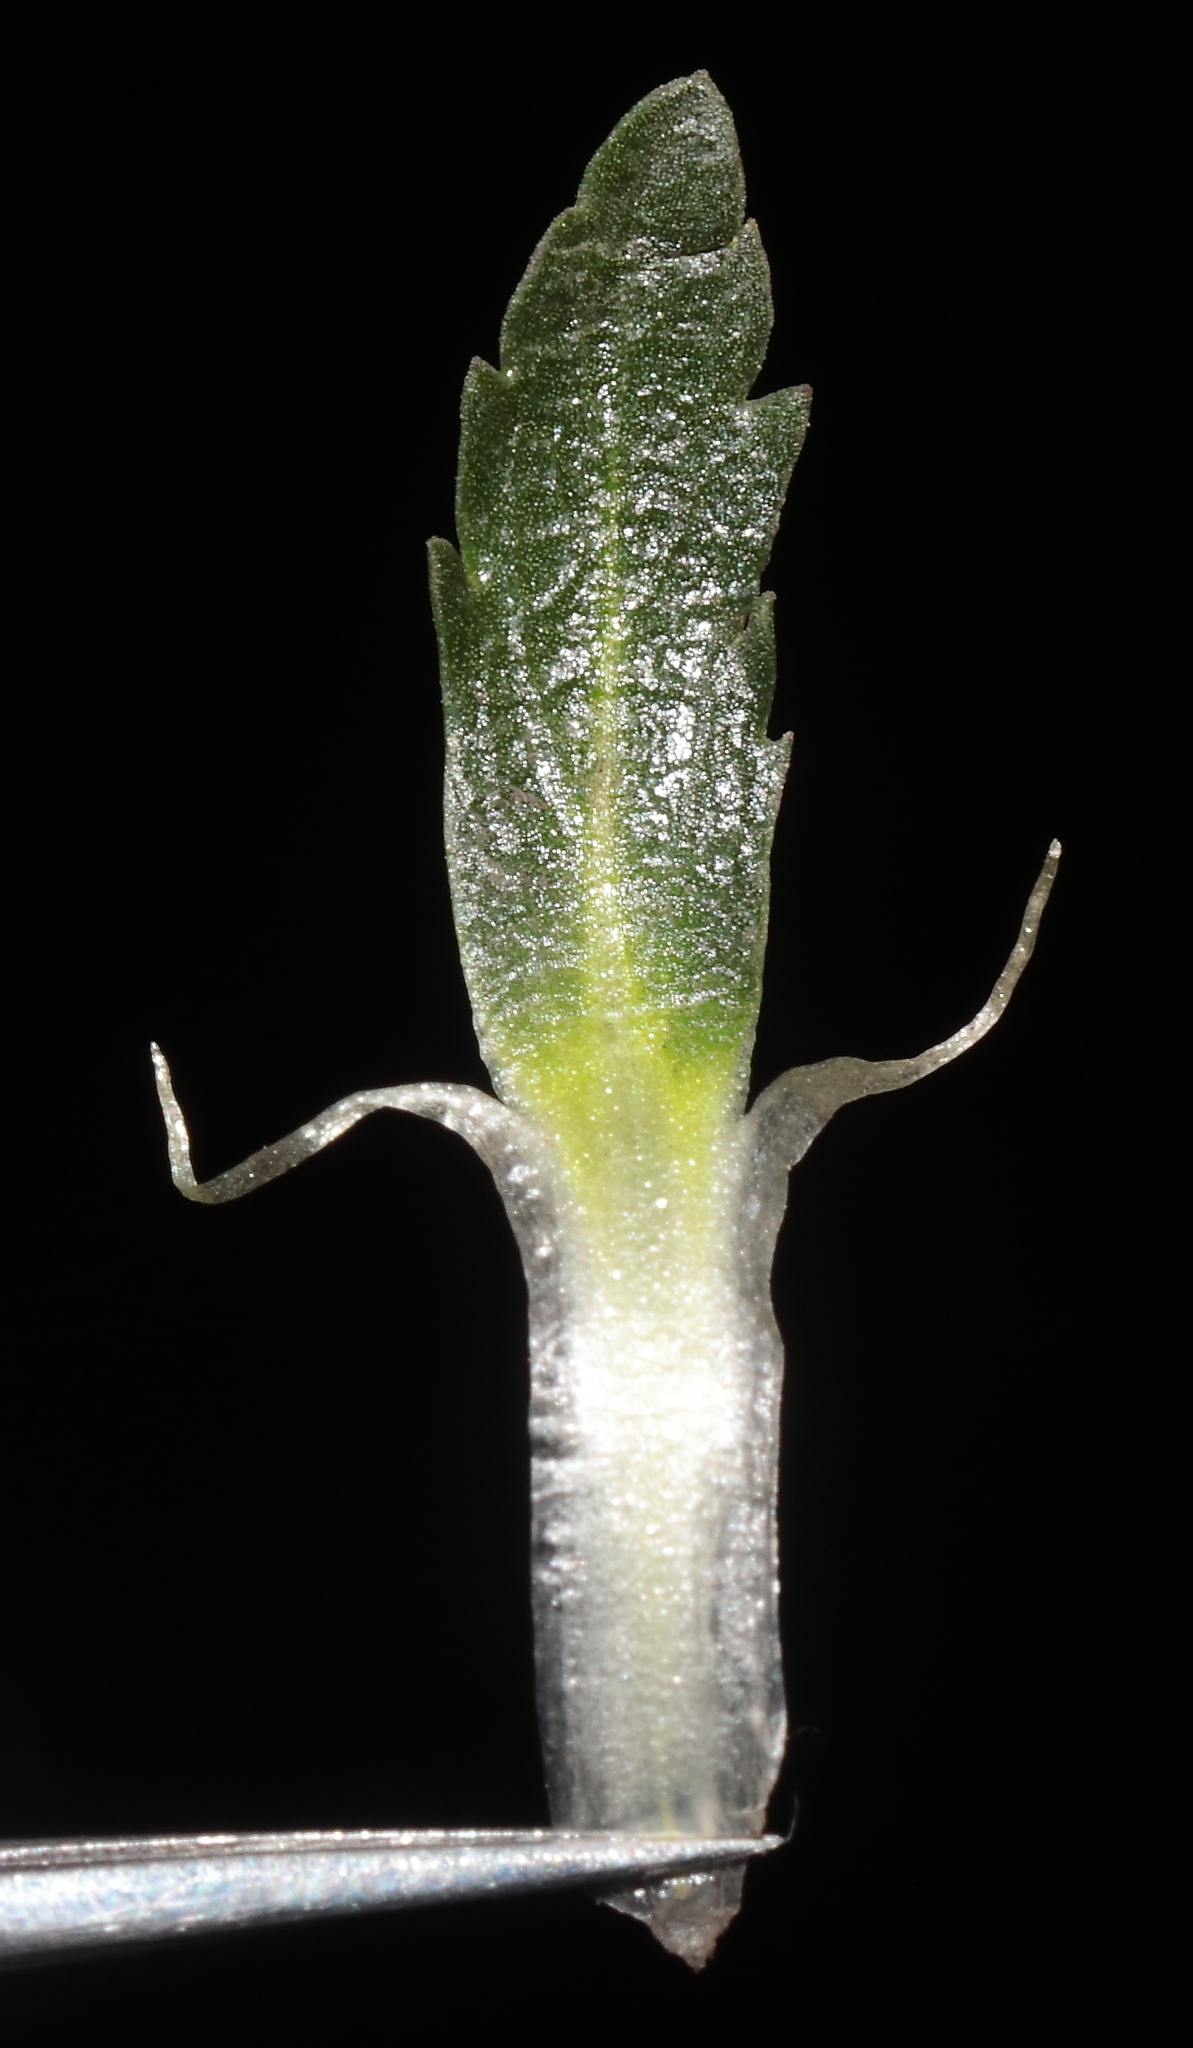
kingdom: Plantae
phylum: Tracheophyta
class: Magnoliopsida
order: Malpighiales
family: Violaceae
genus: Viola
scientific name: Viola membranacea
